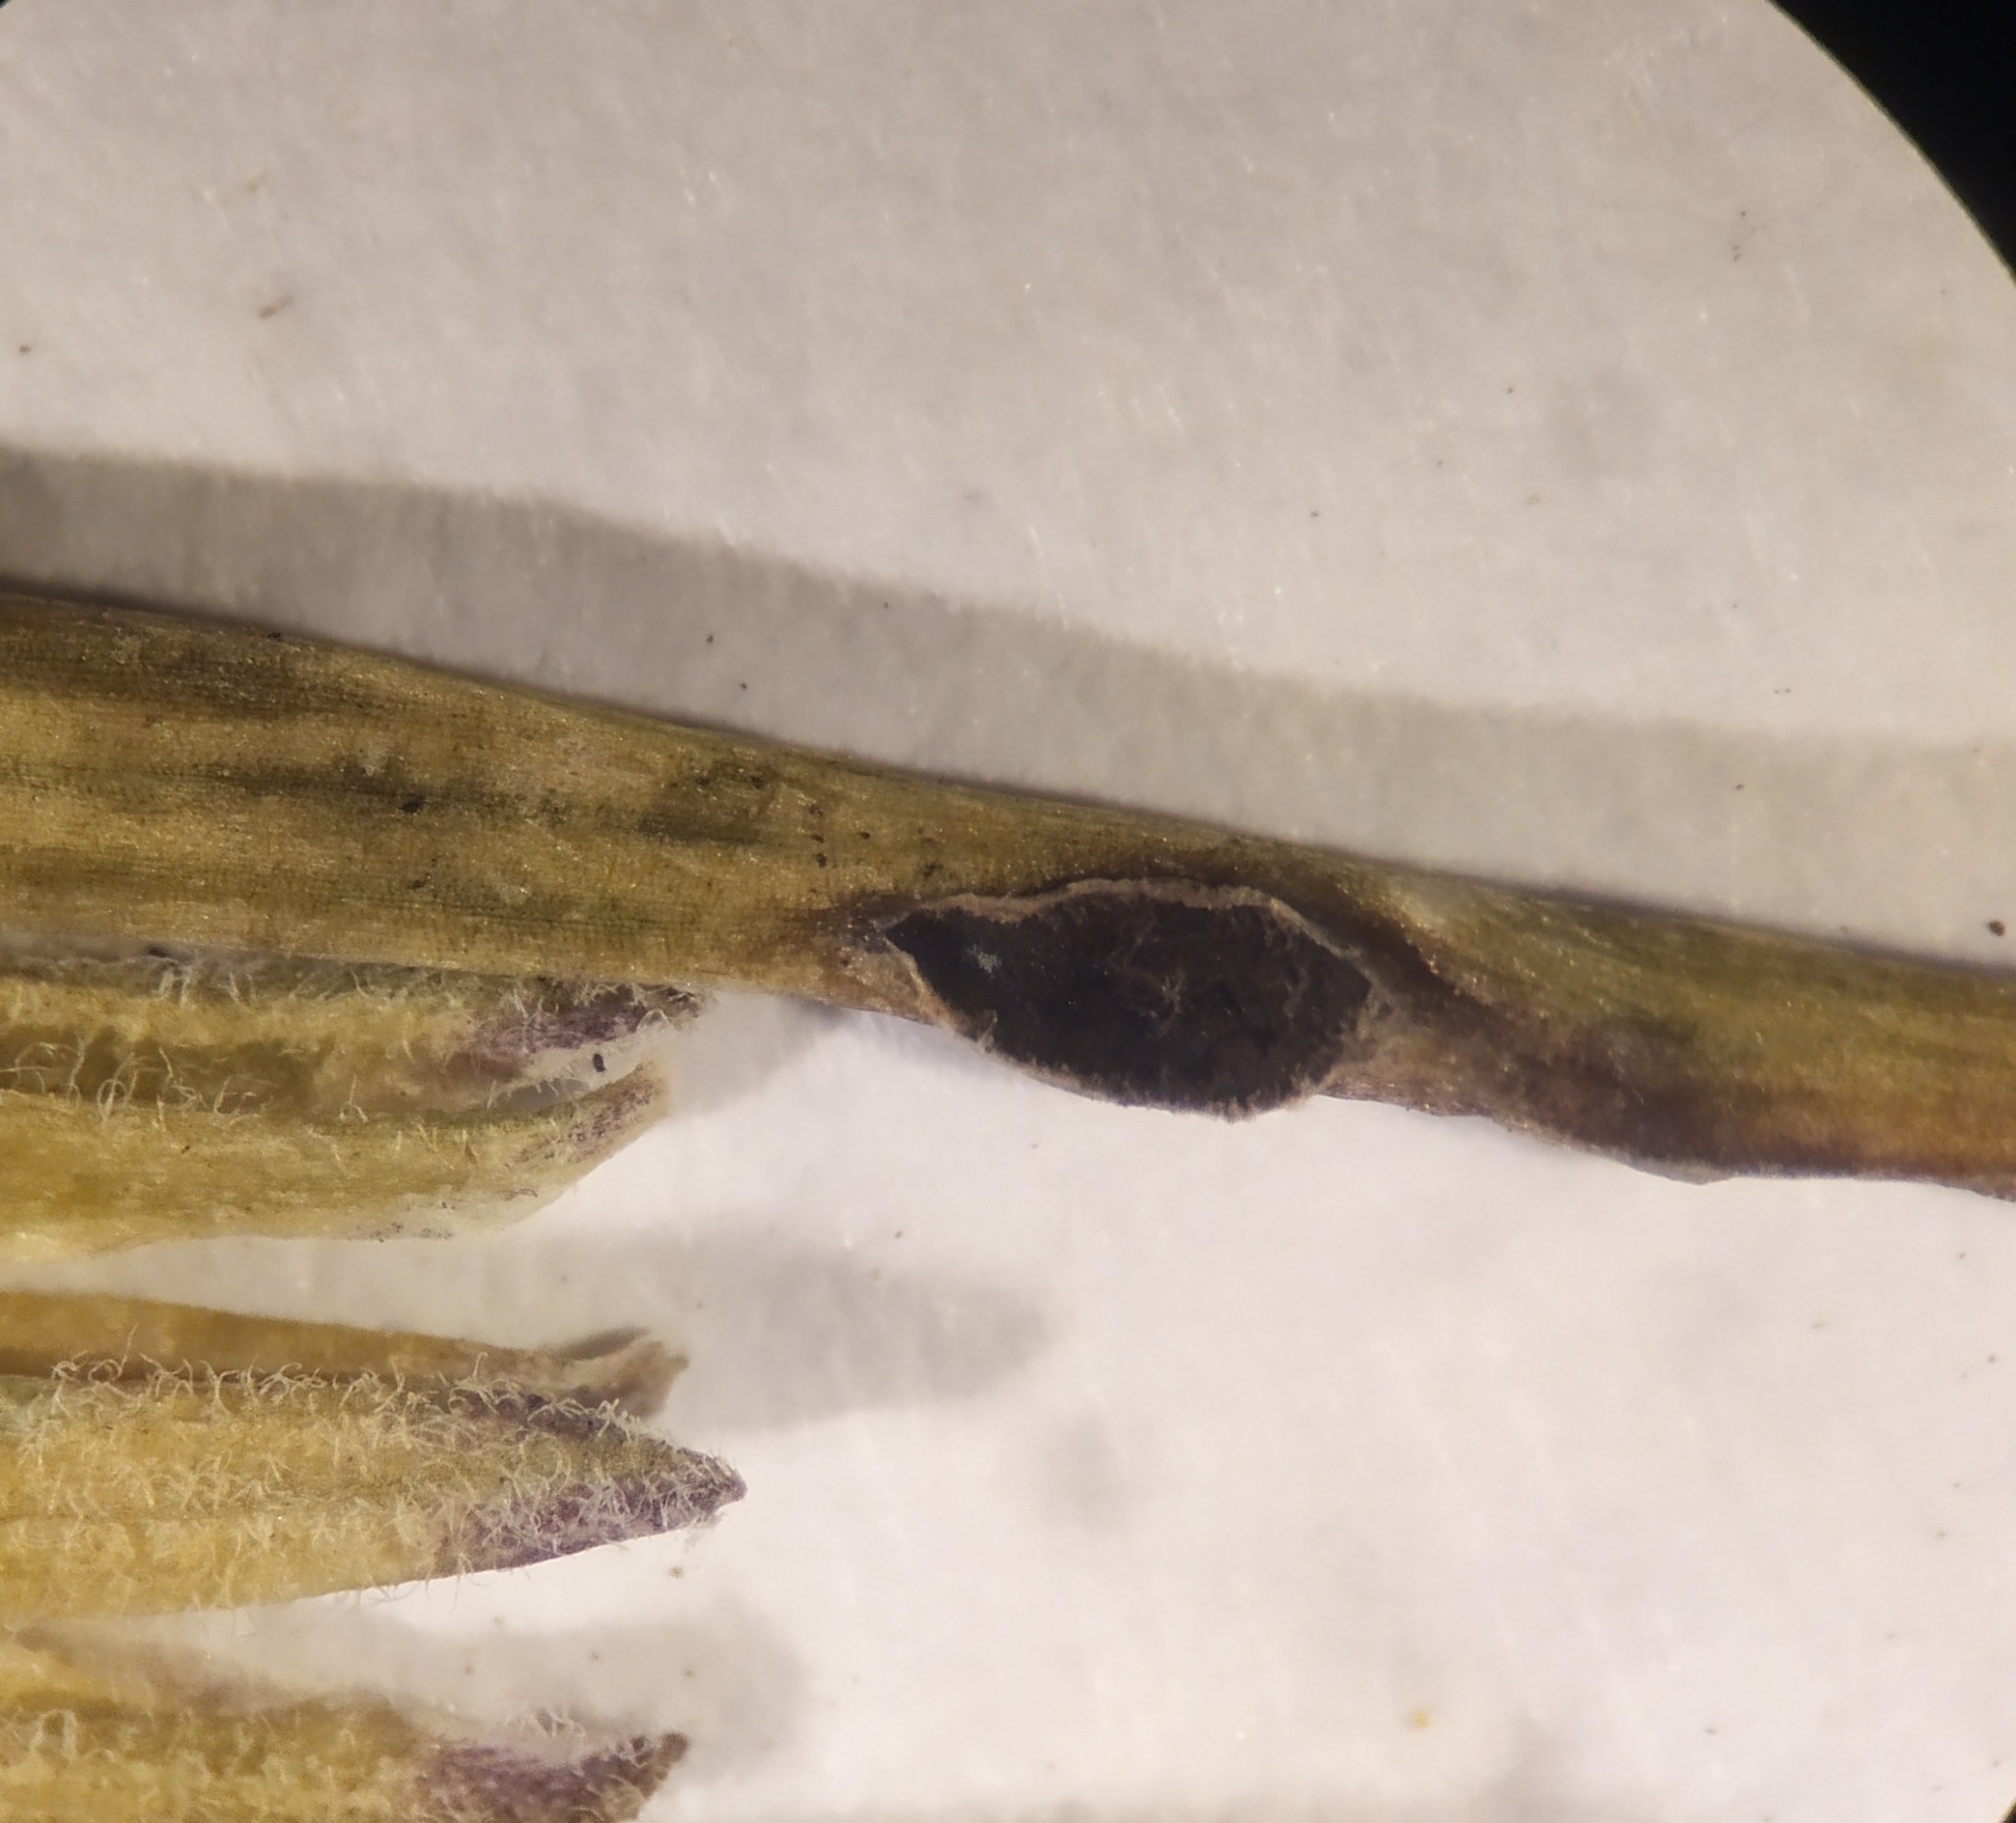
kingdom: Fungi
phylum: Basidiomycota
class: Ustilaginomycetes
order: Urocystidales
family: Urocystidaceae
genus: Vankya
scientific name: Vankya ornithogali
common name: Yellow star-of-bethlehem smut
